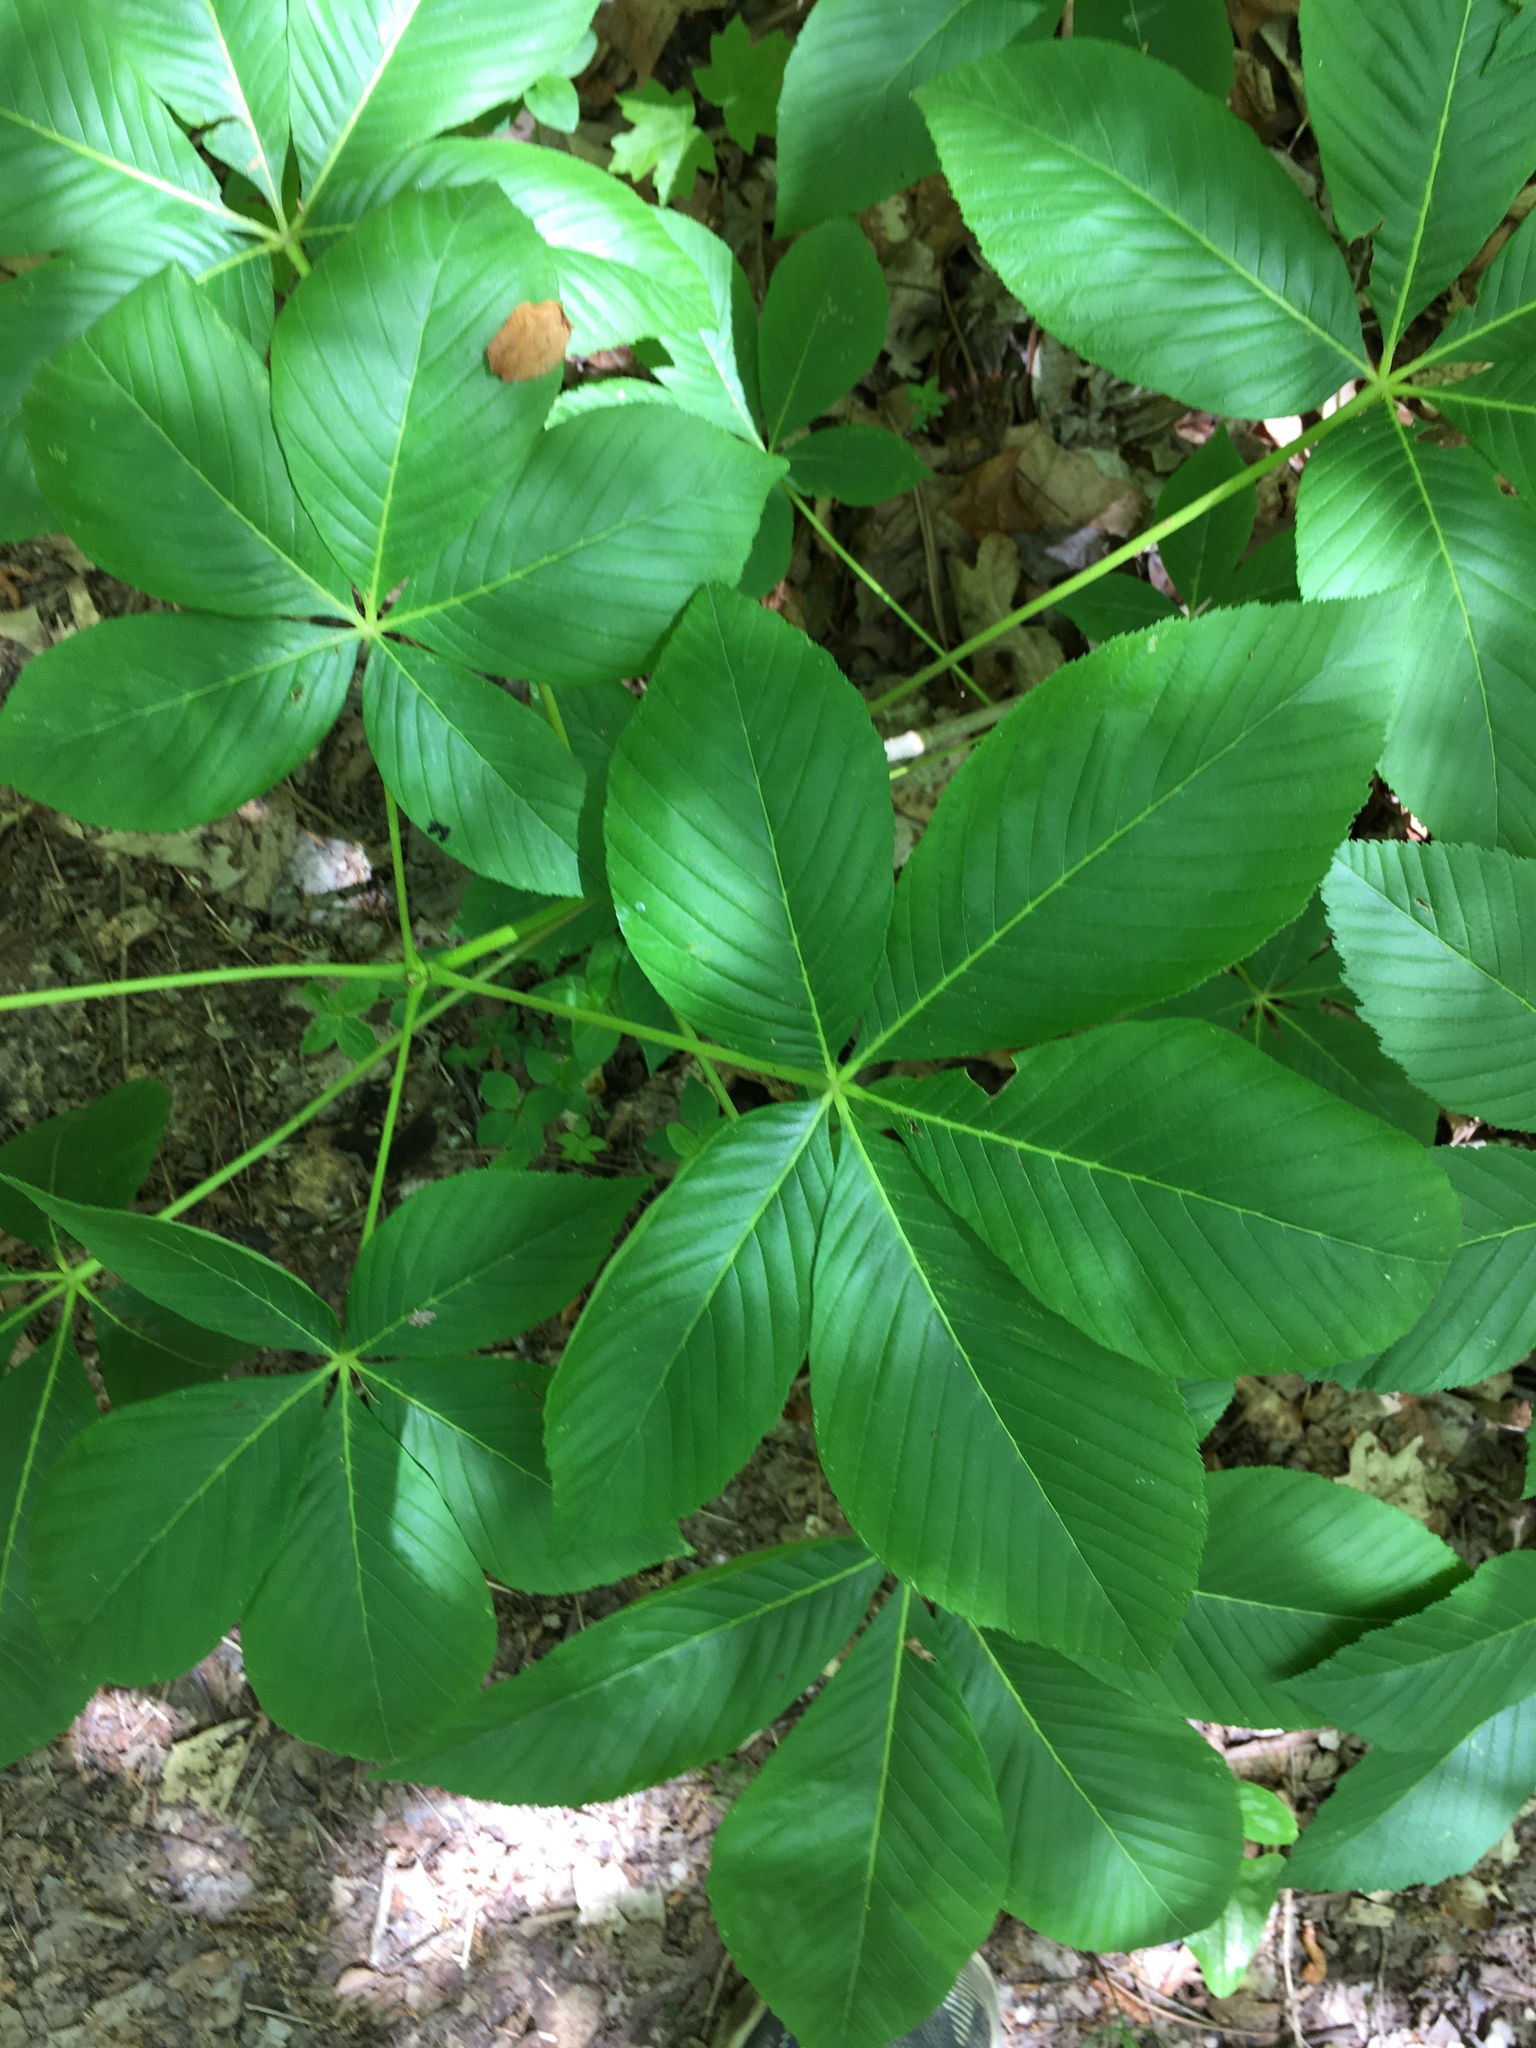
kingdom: Plantae
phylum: Tracheophyta
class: Magnoliopsida
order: Sapindales
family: Sapindaceae
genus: Aesculus
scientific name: Aesculus sylvatica
